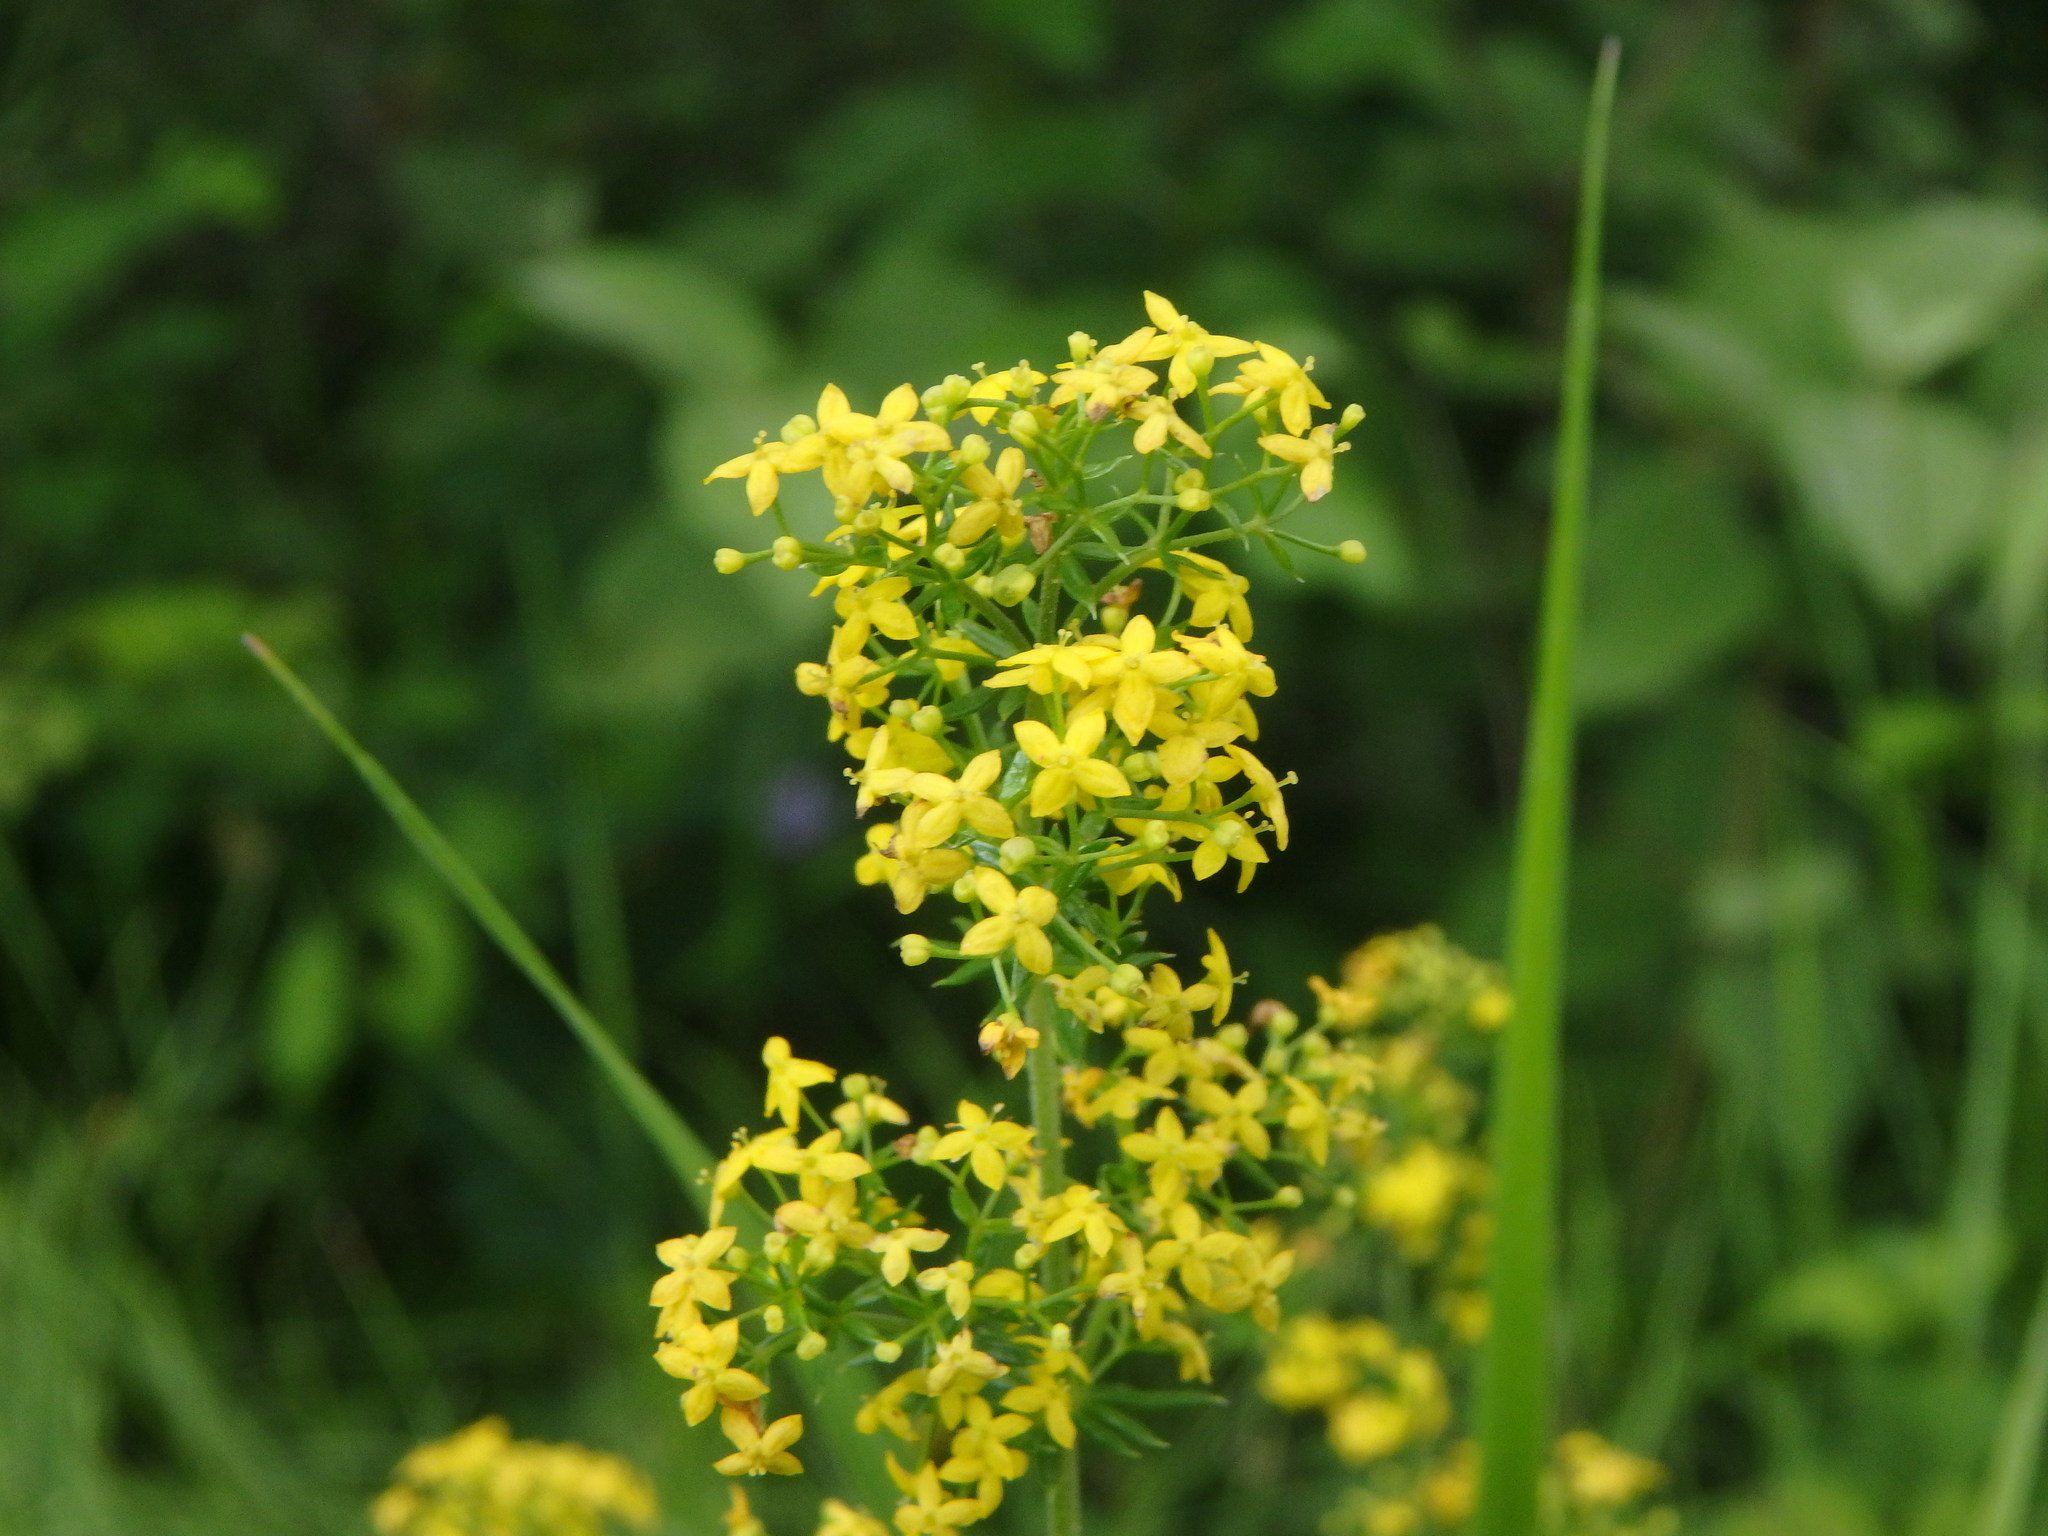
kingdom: Plantae
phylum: Tracheophyta
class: Magnoliopsida
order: Gentianales
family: Rubiaceae
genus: Galium
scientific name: Galium verum
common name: Lady's bedstraw
